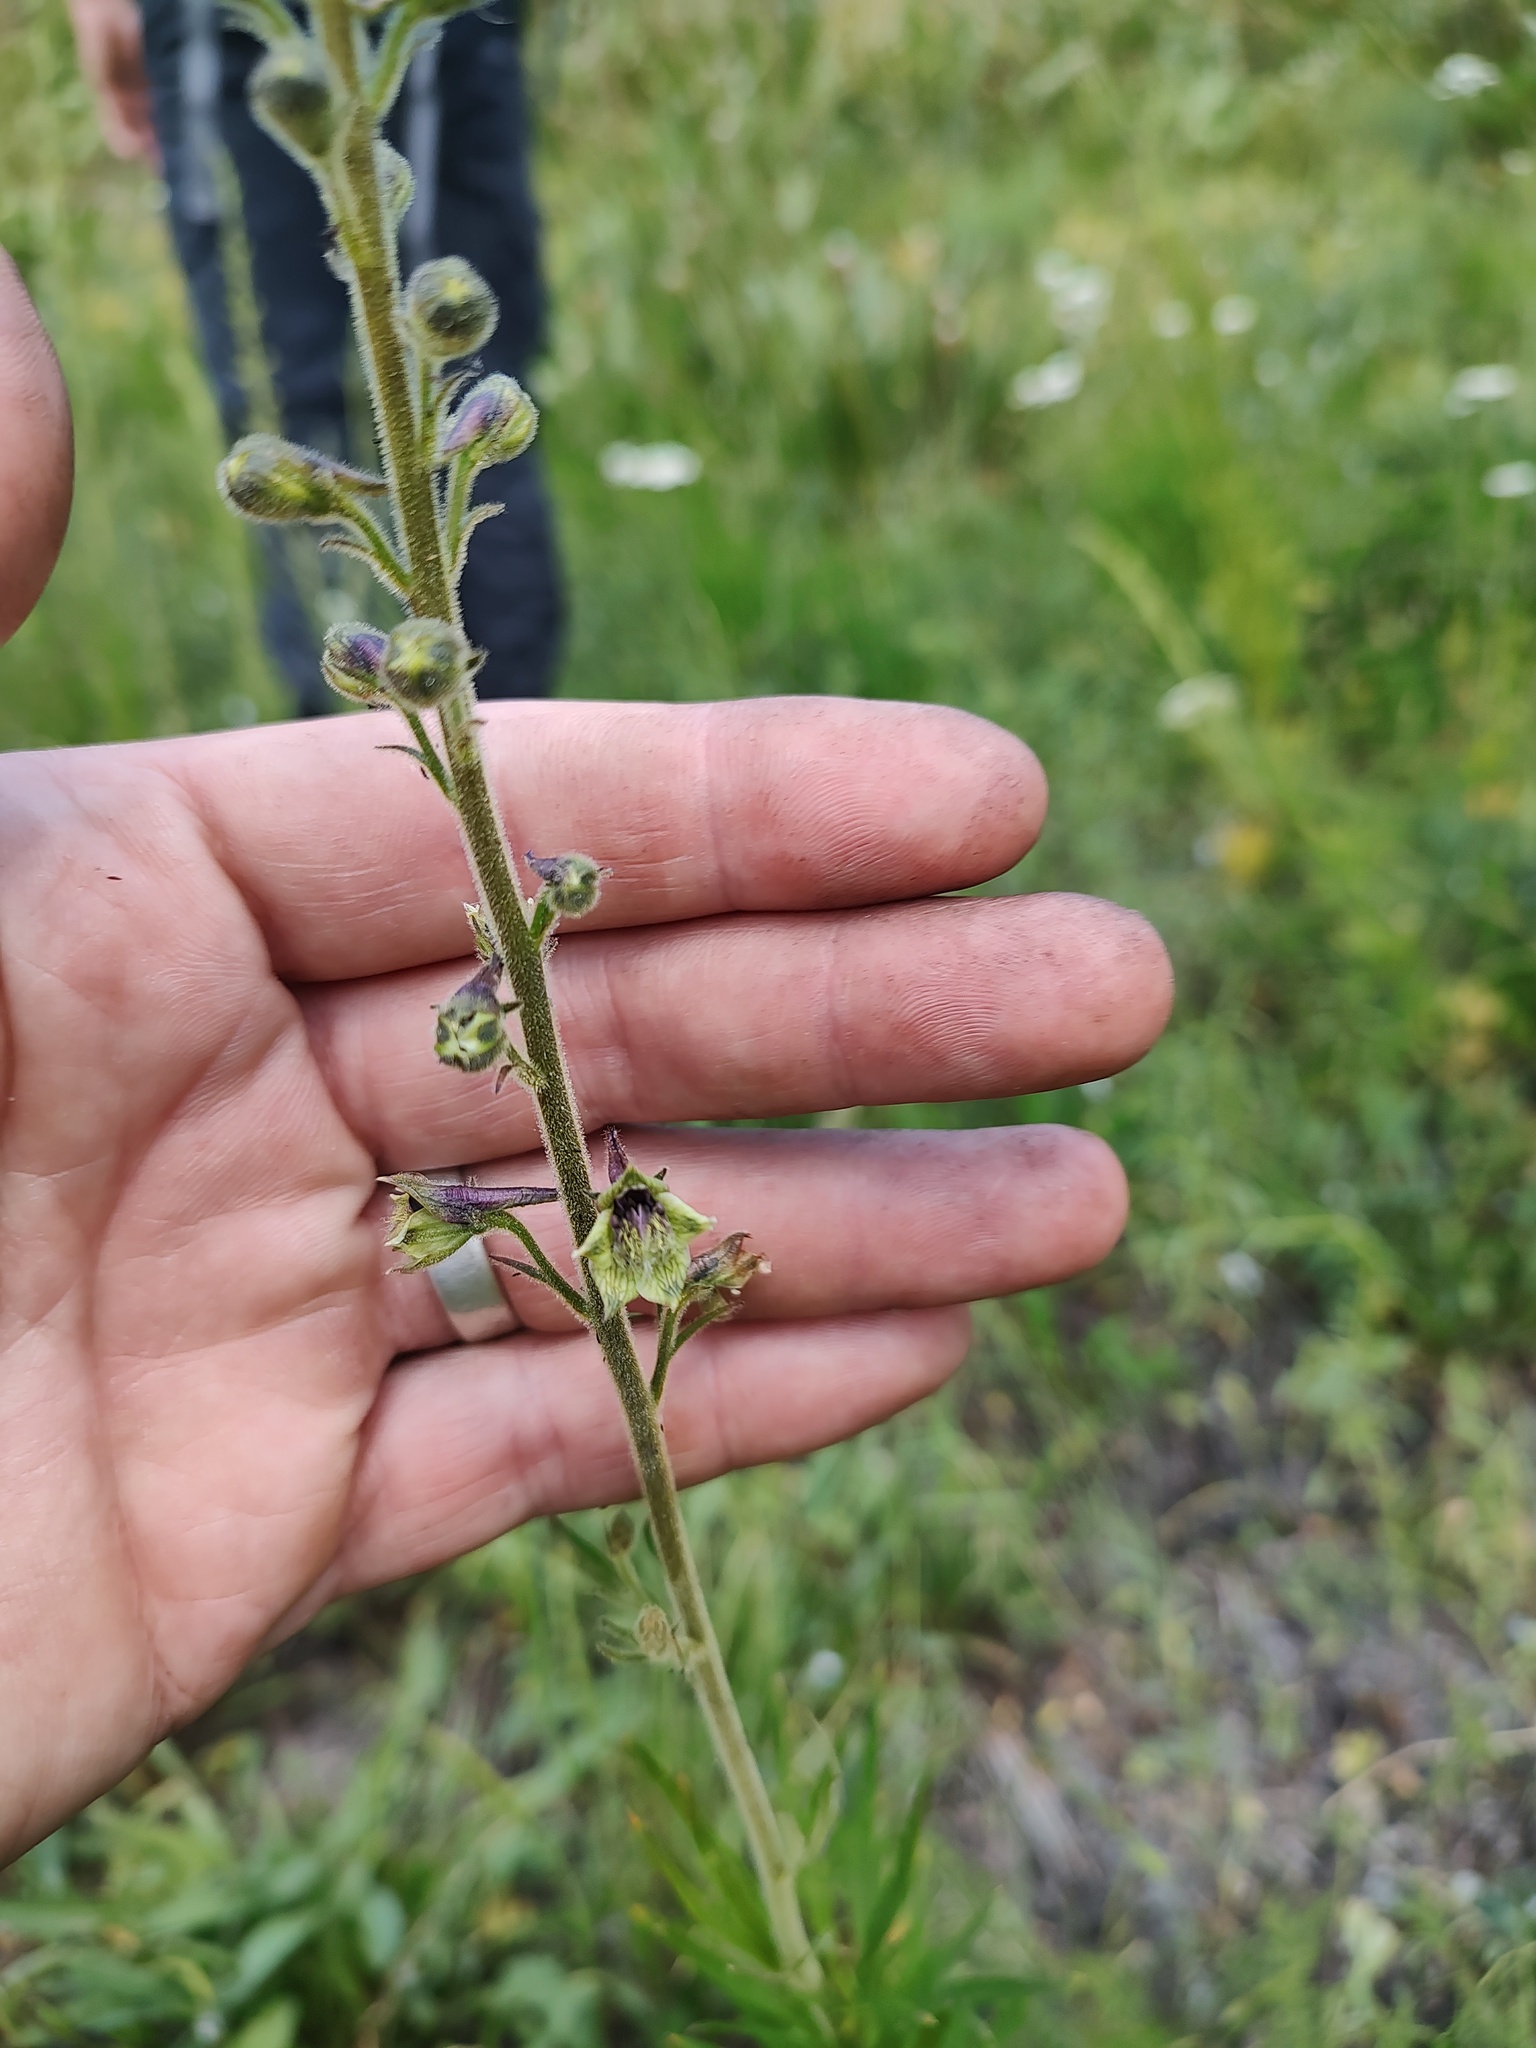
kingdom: Plantae
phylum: Tracheophyta
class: Magnoliopsida
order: Ranunculales
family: Ranunculaceae
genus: Delphinium
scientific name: Delphinium viridescens
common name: Wenatchee larkspur
